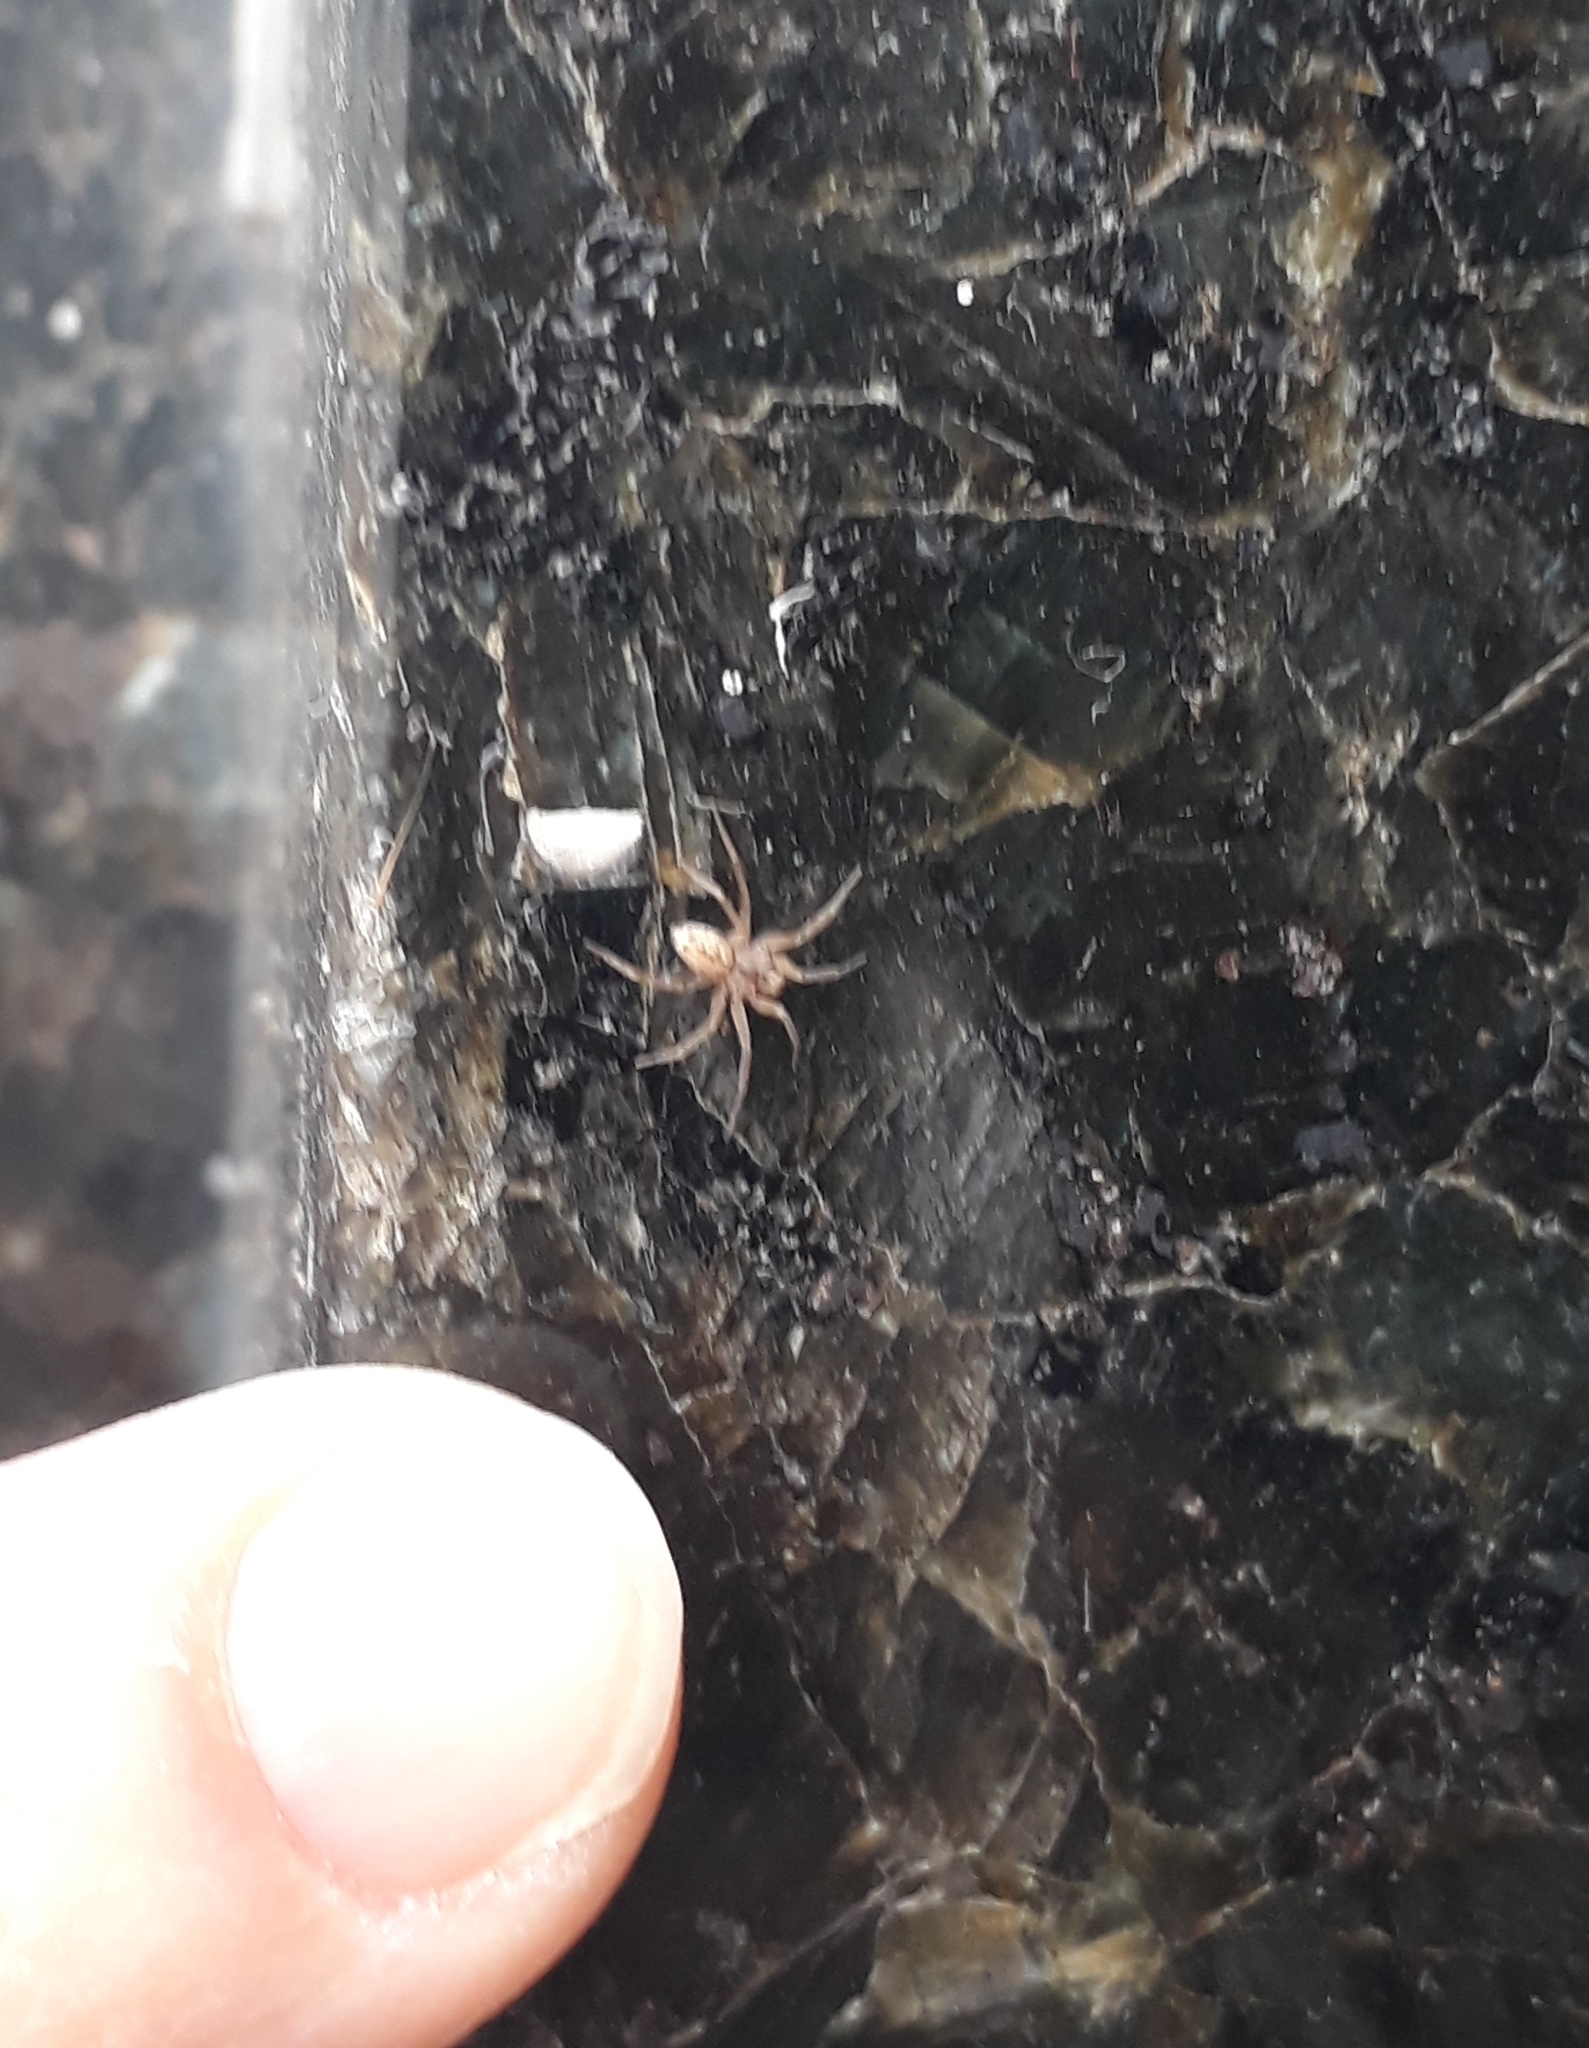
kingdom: Animalia
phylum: Arthropoda
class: Arachnida
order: Araneae
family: Oecobiidae
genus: Oecobius
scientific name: Oecobius navus
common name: Flatmesh weaver
